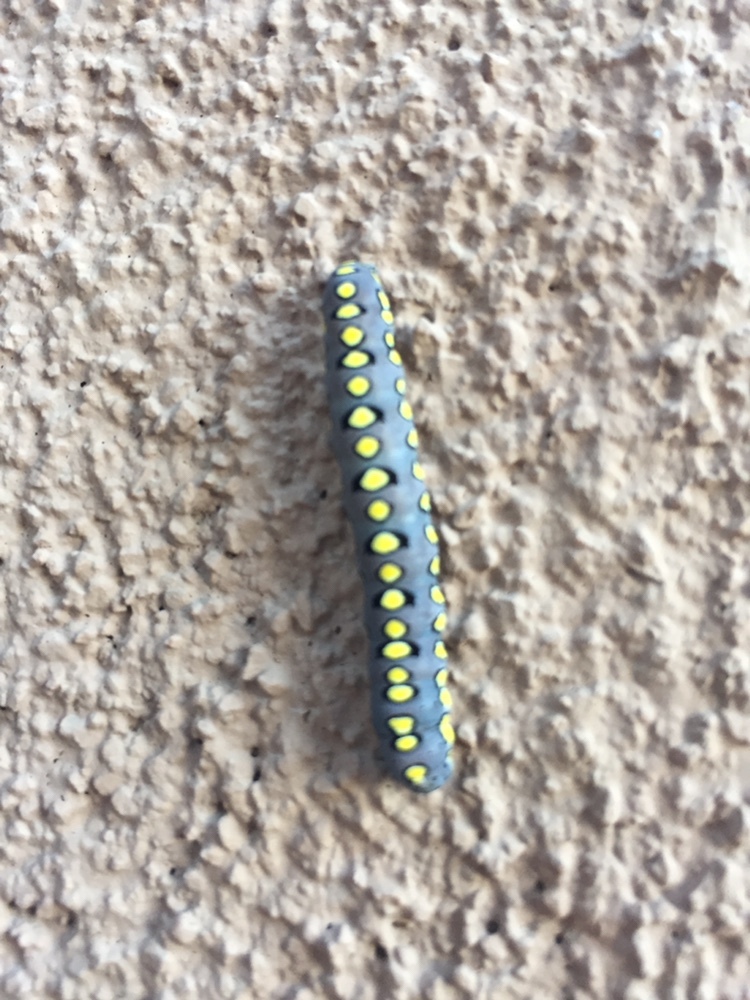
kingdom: Animalia
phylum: Arthropoda
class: Insecta
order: Lepidoptera
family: Noctuidae
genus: Sympistis
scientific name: Sympistis sorapis
